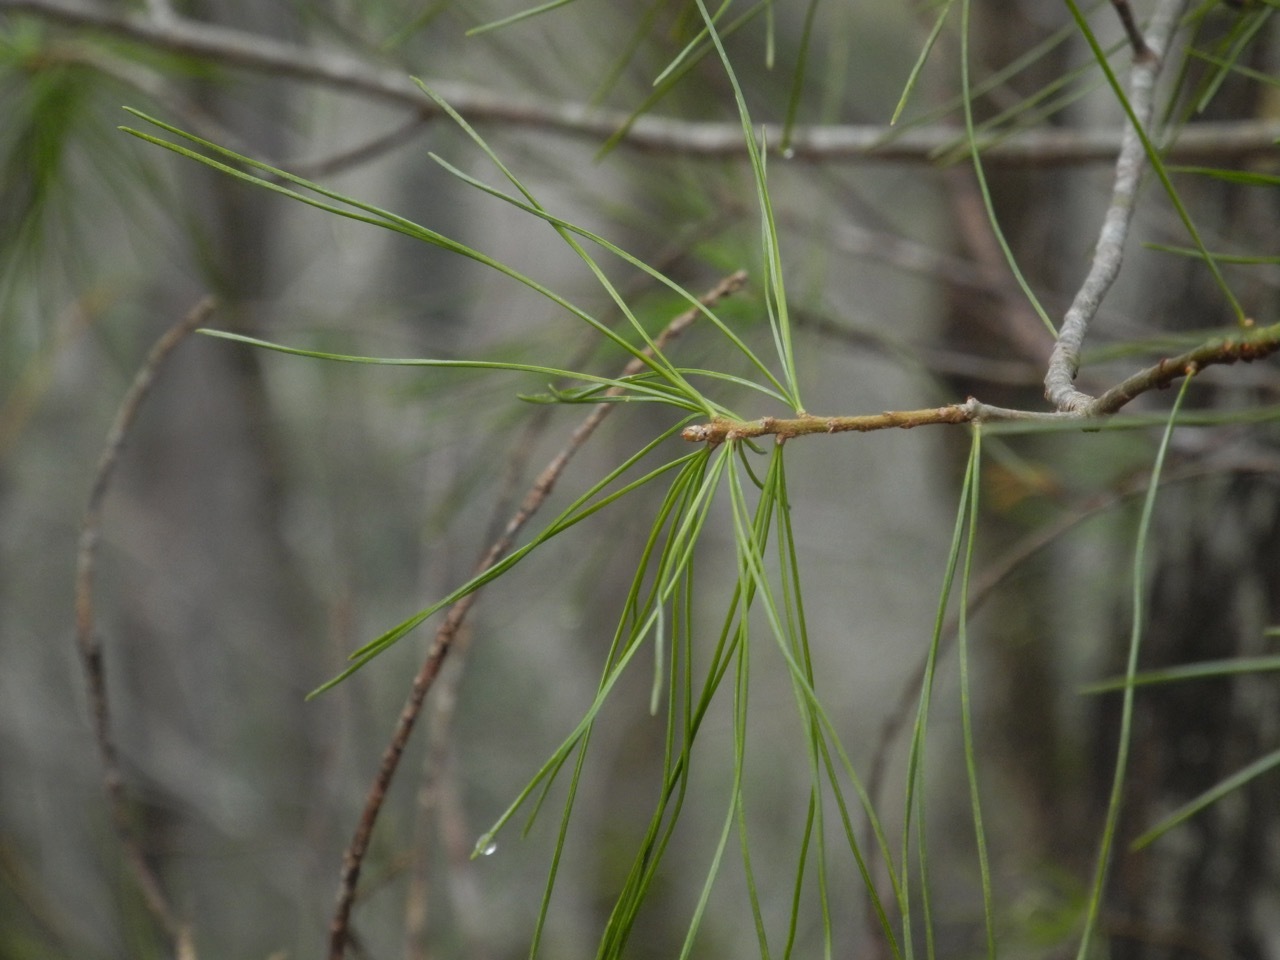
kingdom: Plantae
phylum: Tracheophyta
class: Pinopsida
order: Pinales
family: Pinaceae
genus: Pinus
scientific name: Pinus strobus
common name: Weymouth pine
